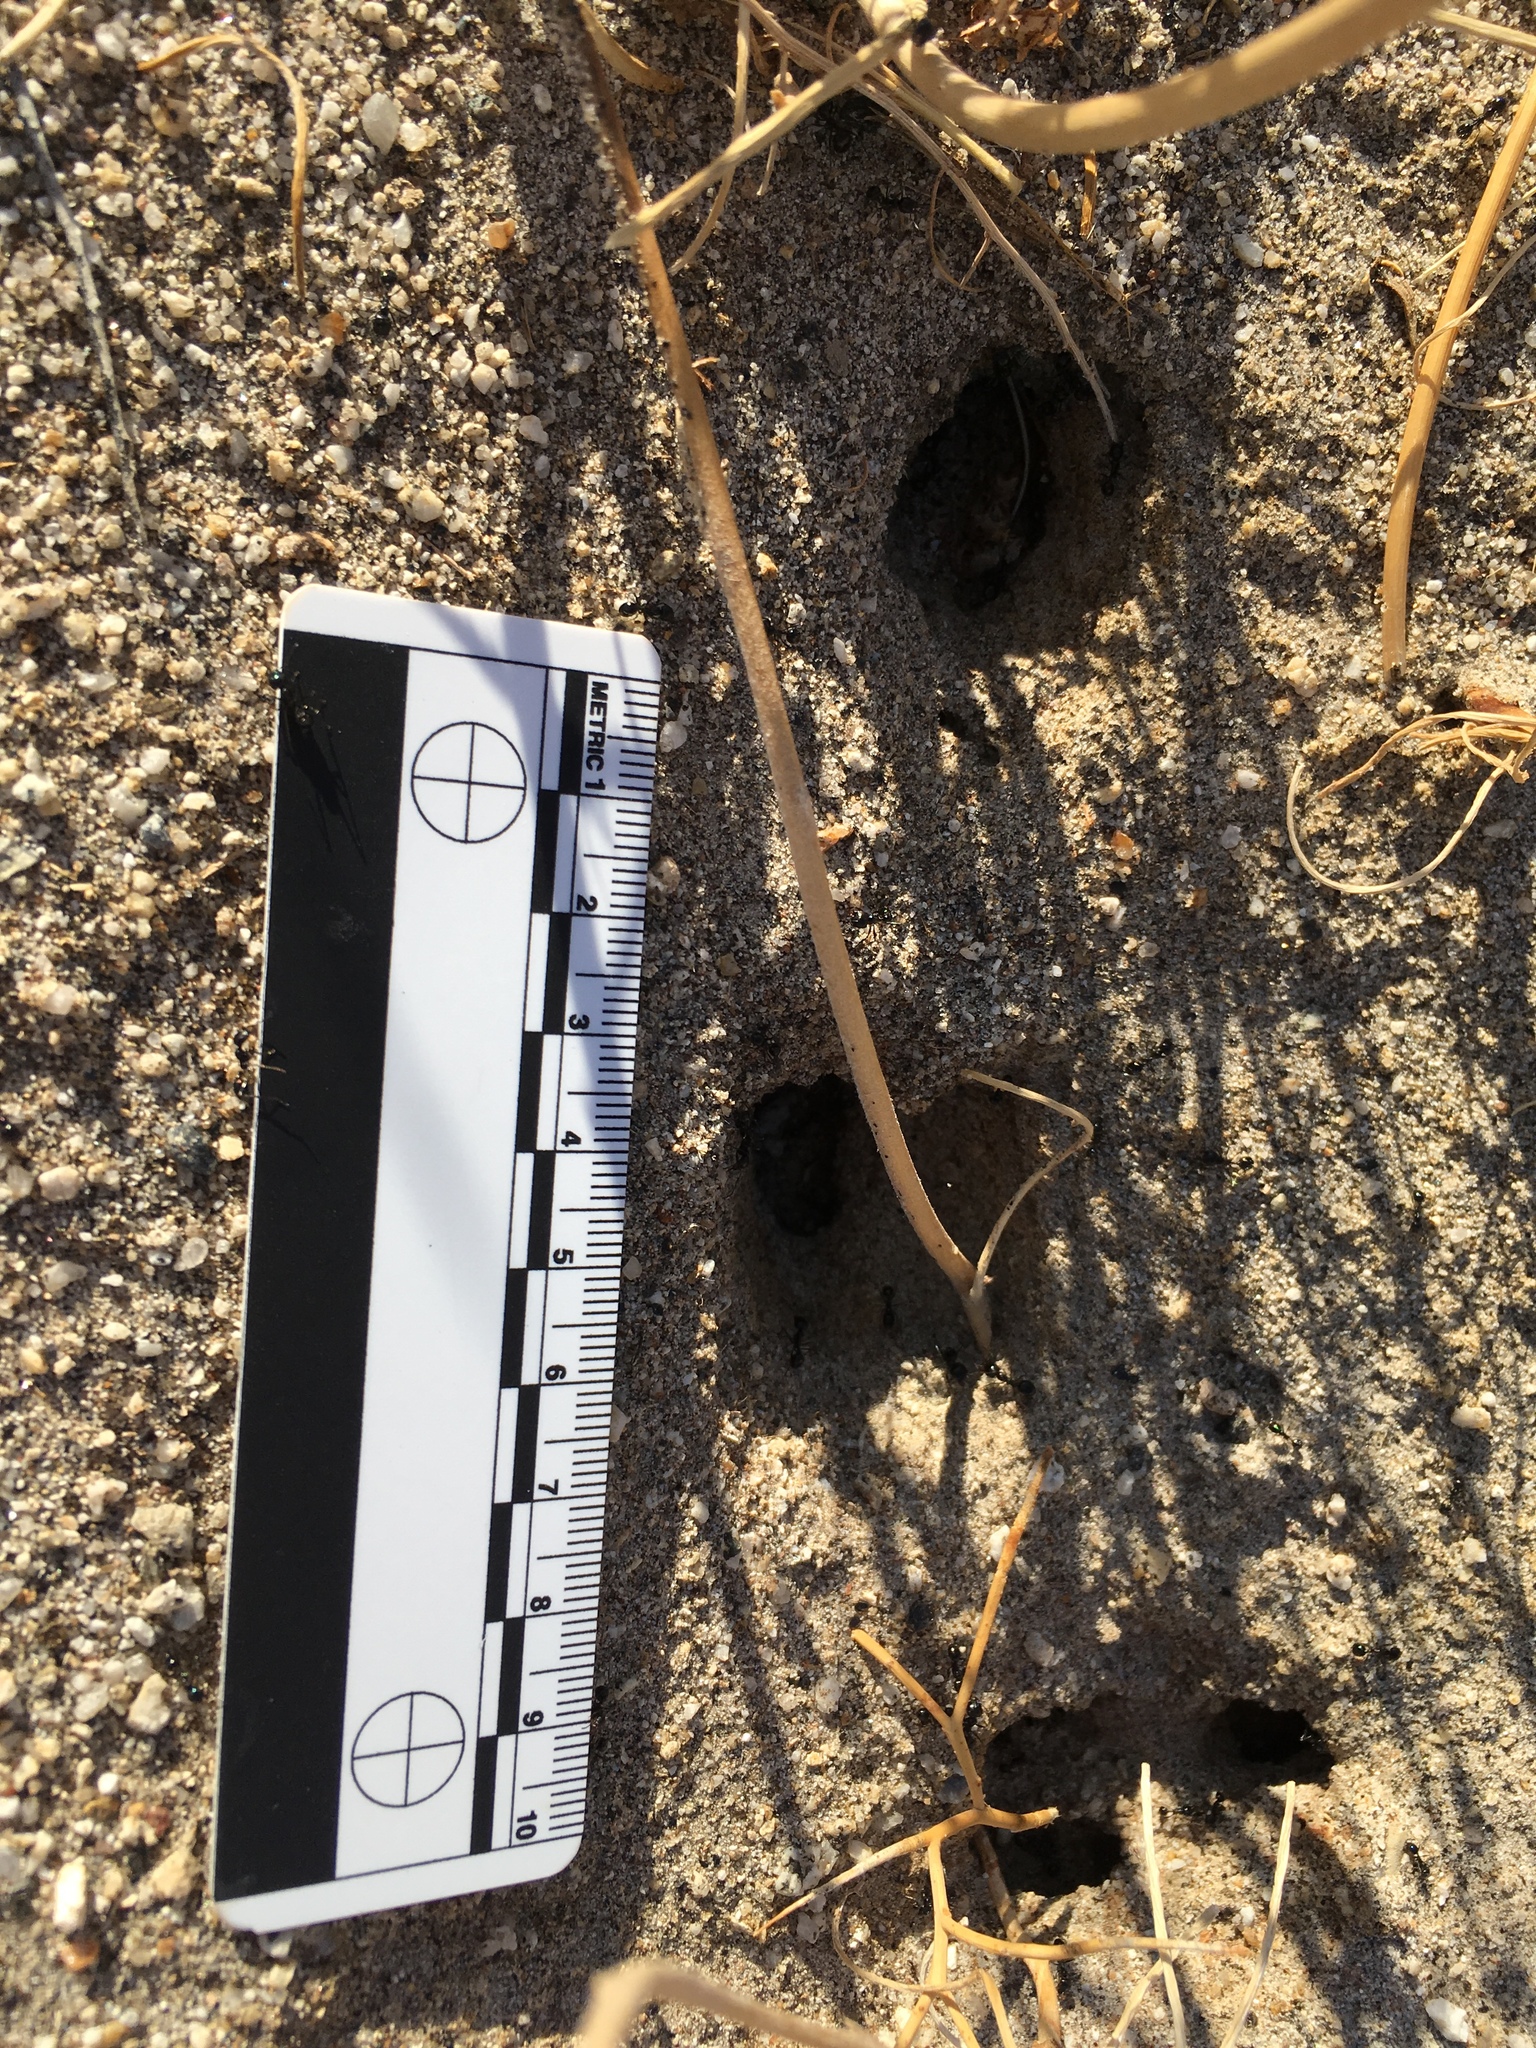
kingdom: Animalia
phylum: Arthropoda
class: Insecta
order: Hymenoptera
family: Formicidae
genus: Messor
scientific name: Messor pergandei
